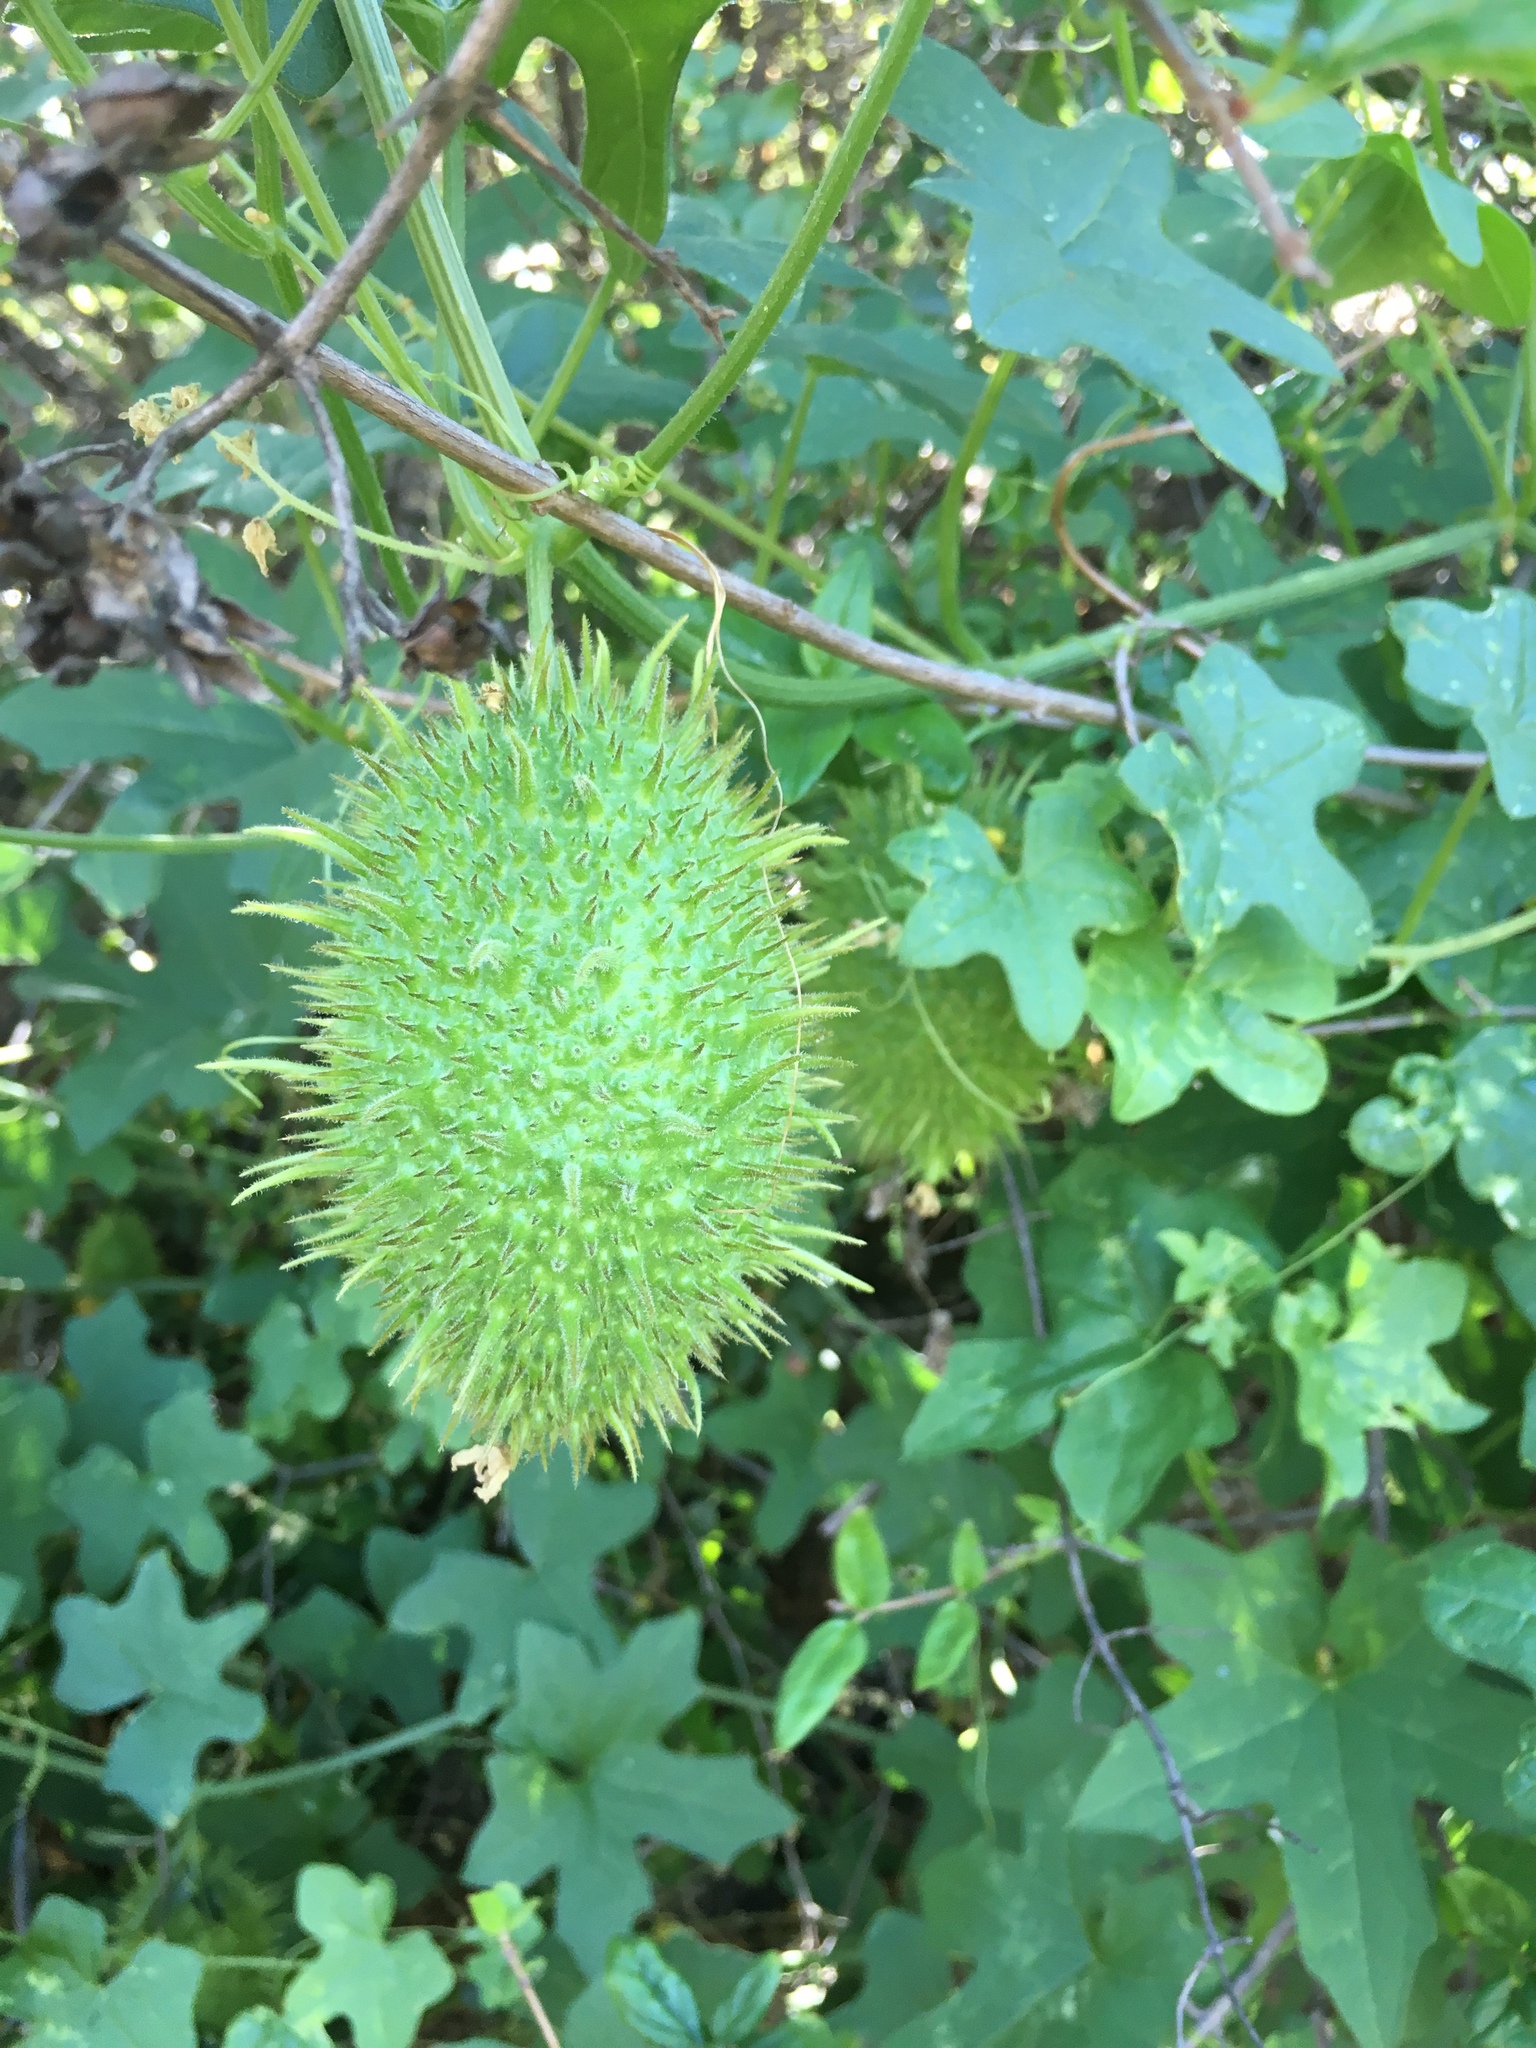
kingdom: Plantae
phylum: Tracheophyta
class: Magnoliopsida
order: Cucurbitales
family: Cucurbitaceae
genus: Marah
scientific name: Marah macrocarpa
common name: Cucamonga manroot
